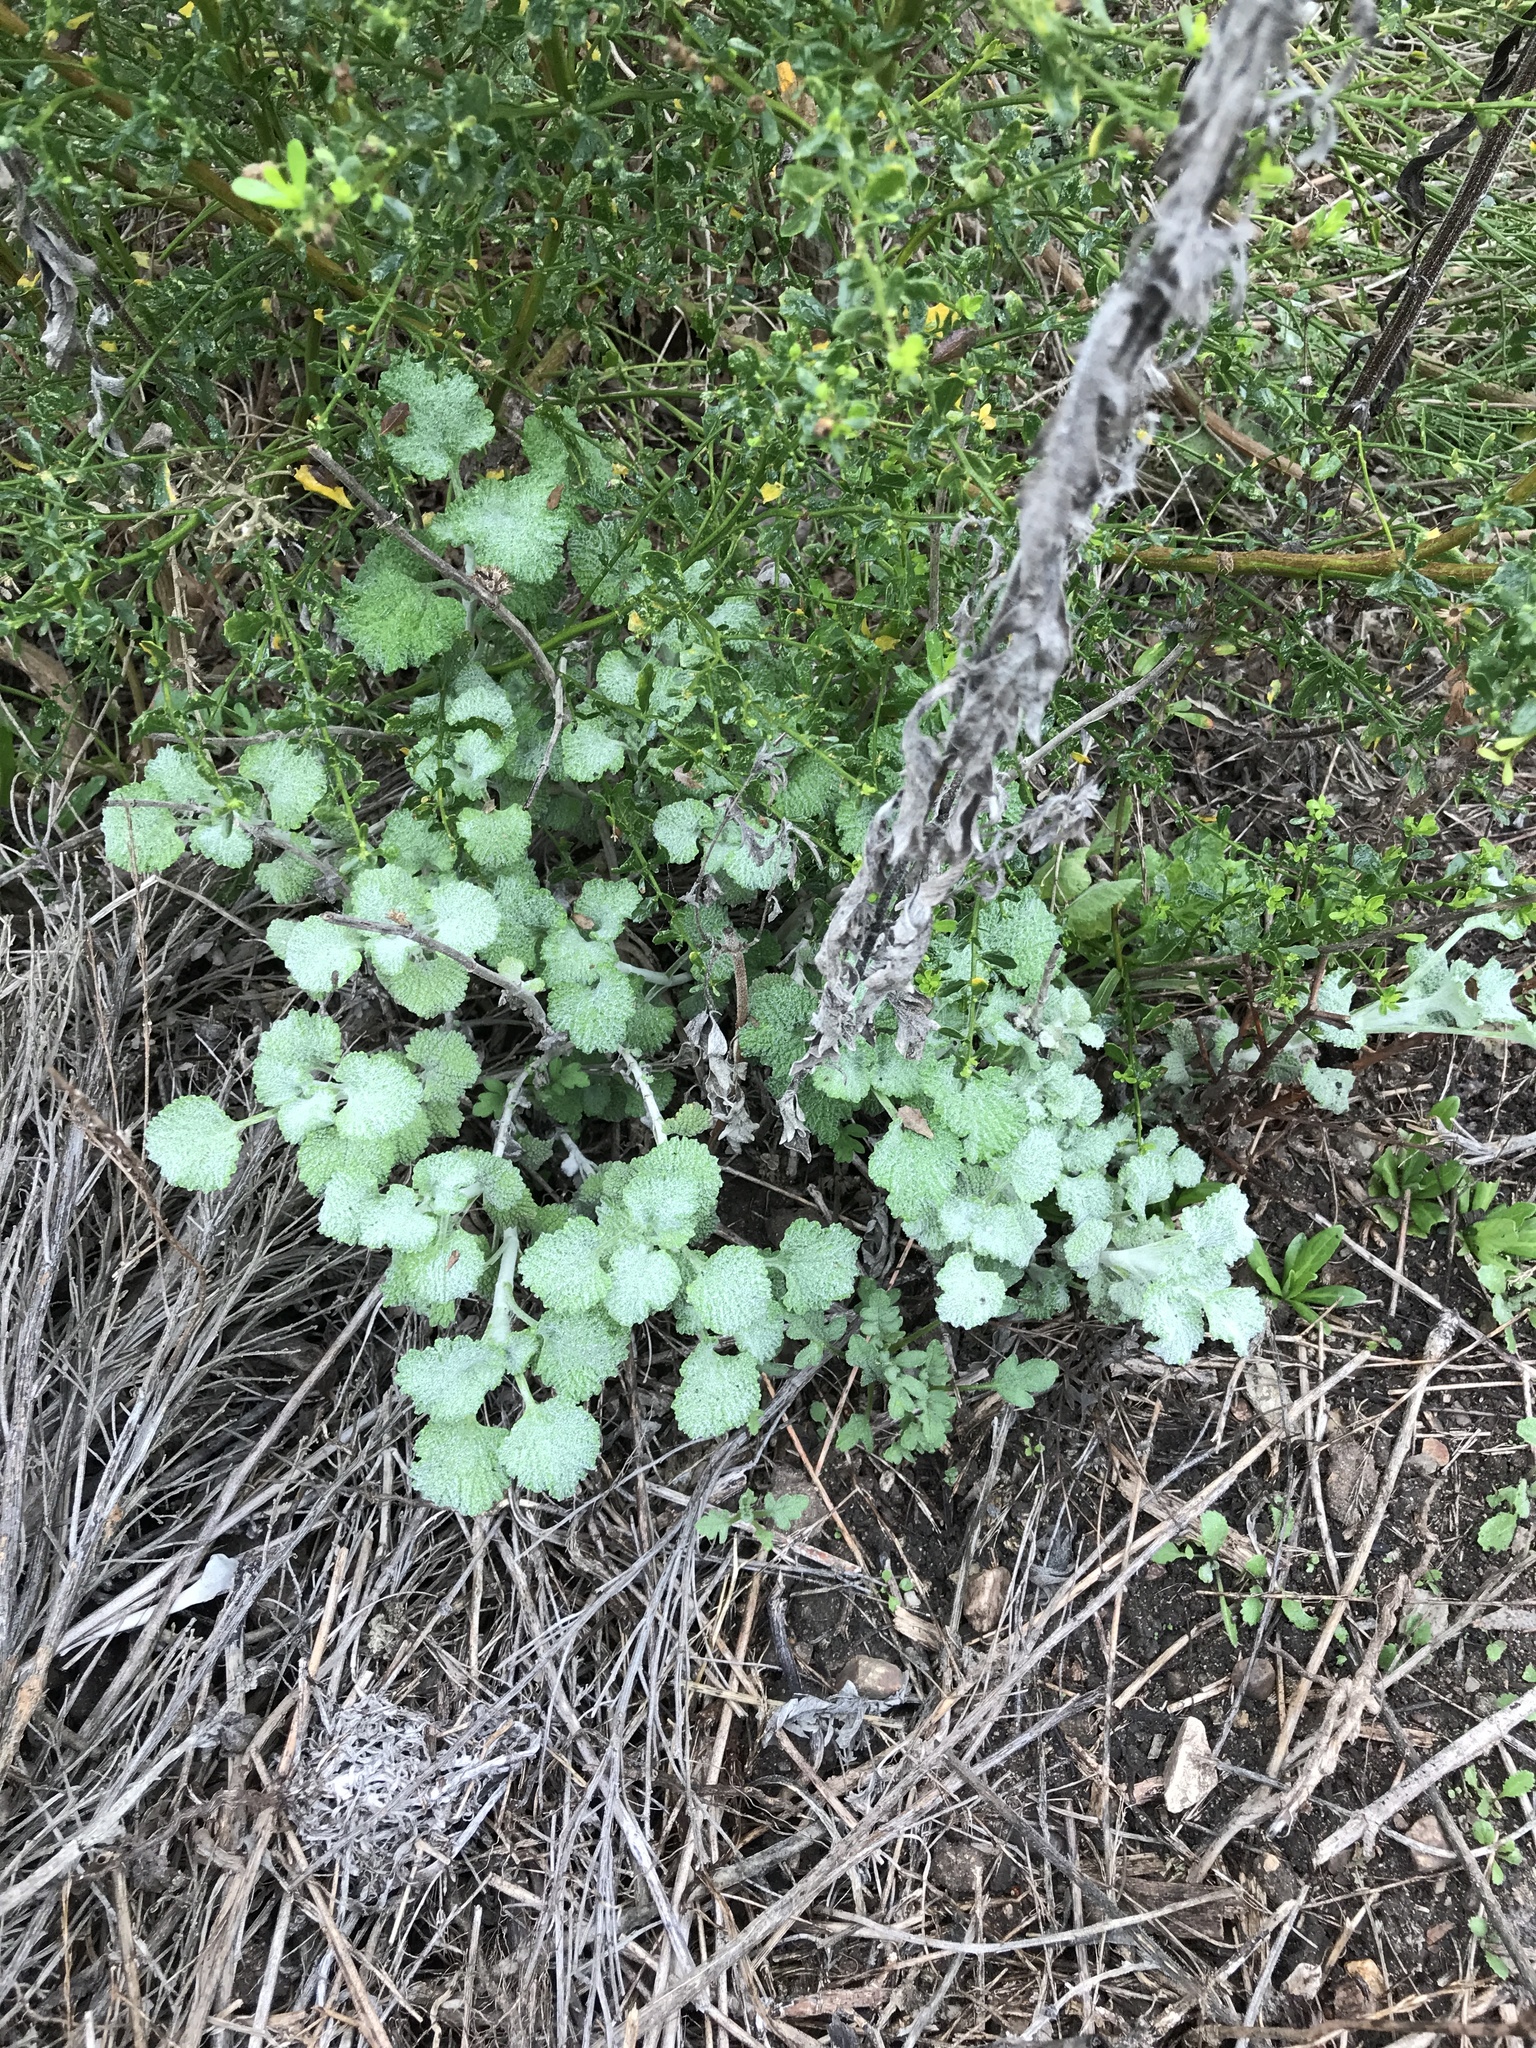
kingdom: Plantae
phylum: Tracheophyta
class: Magnoliopsida
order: Lamiales
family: Lamiaceae
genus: Marrubium
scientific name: Marrubium vulgare
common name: Horehound
